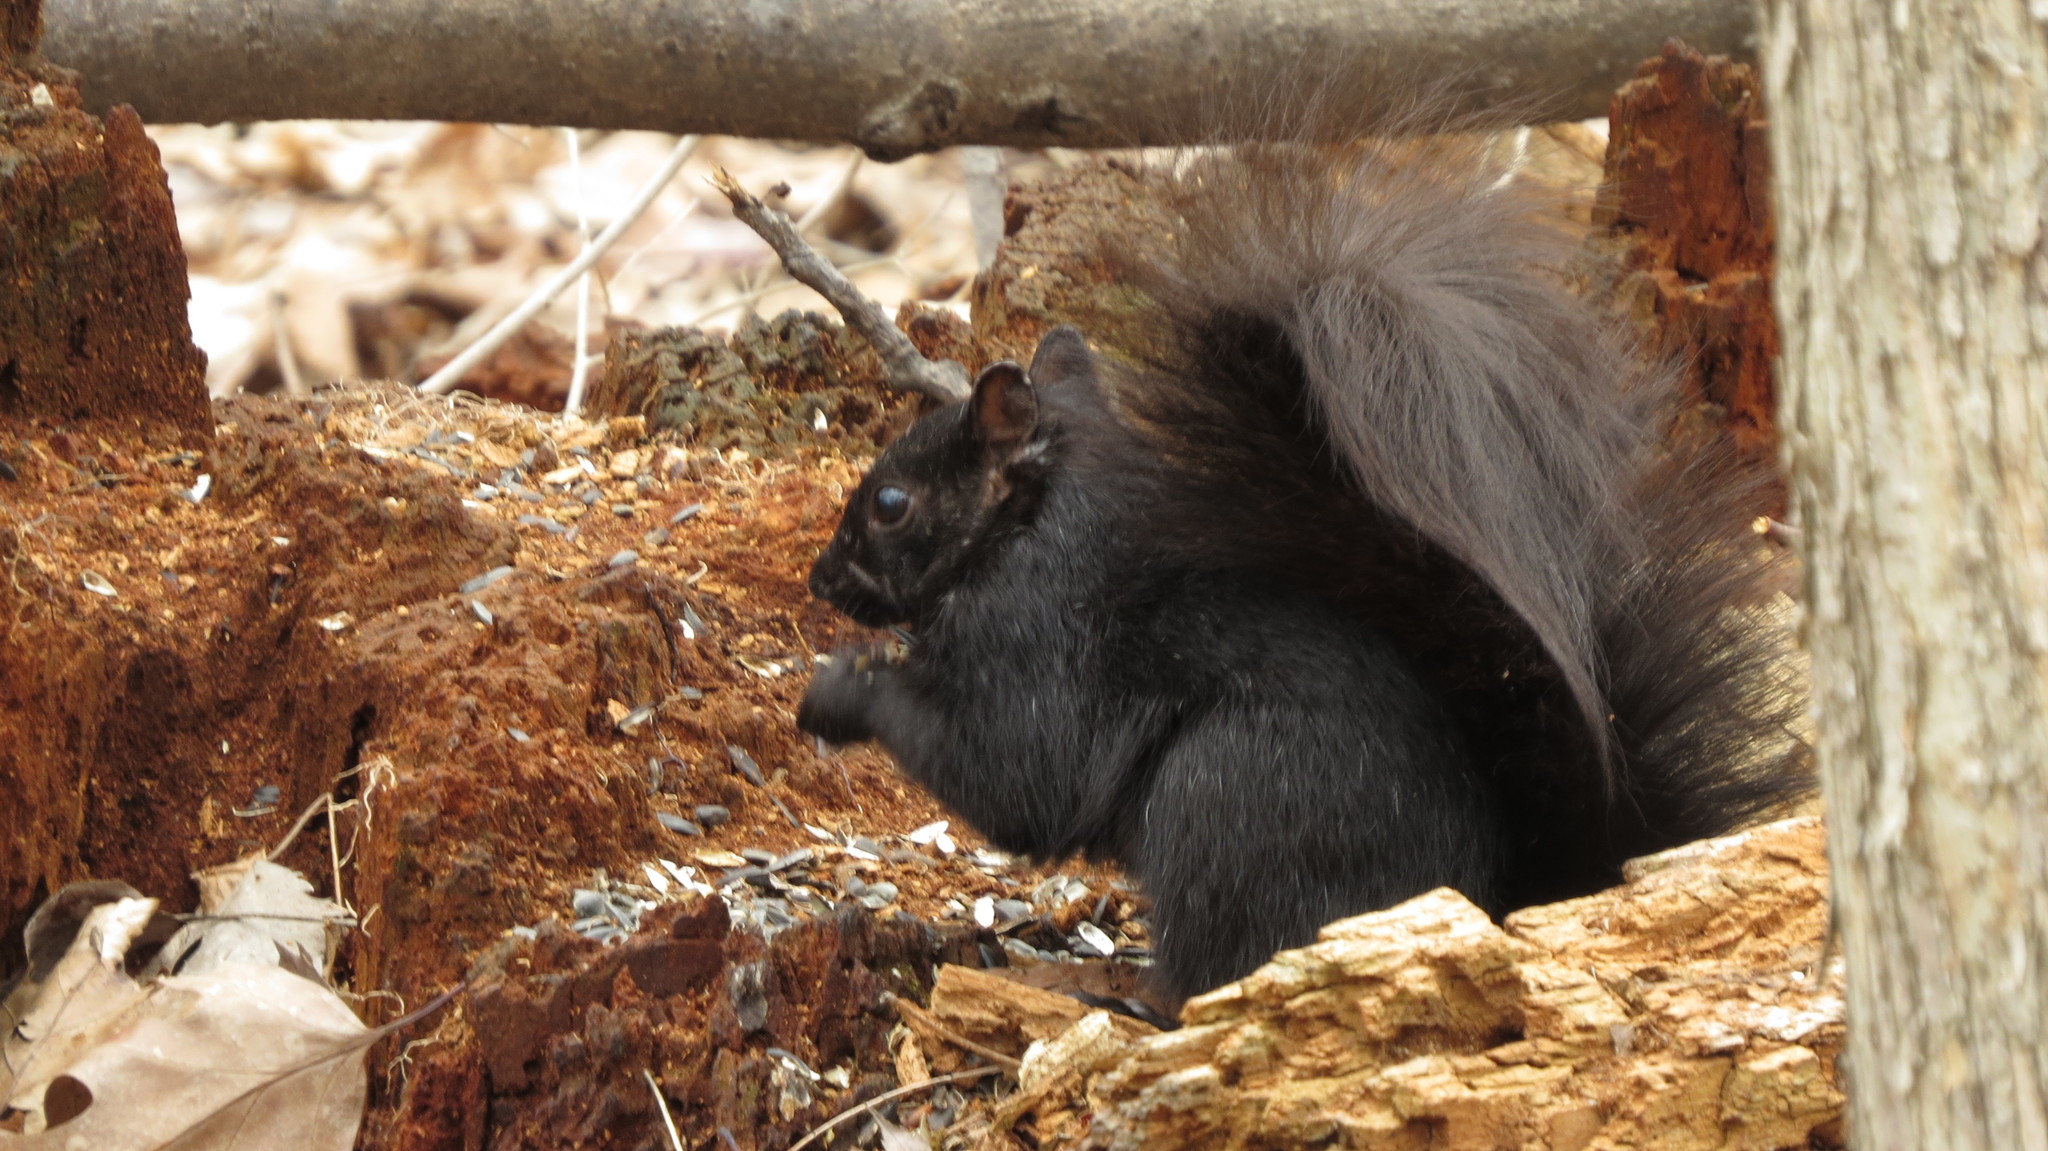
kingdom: Animalia
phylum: Chordata
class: Mammalia
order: Rodentia
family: Sciuridae
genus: Sciurus
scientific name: Sciurus carolinensis
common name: Eastern gray squirrel
